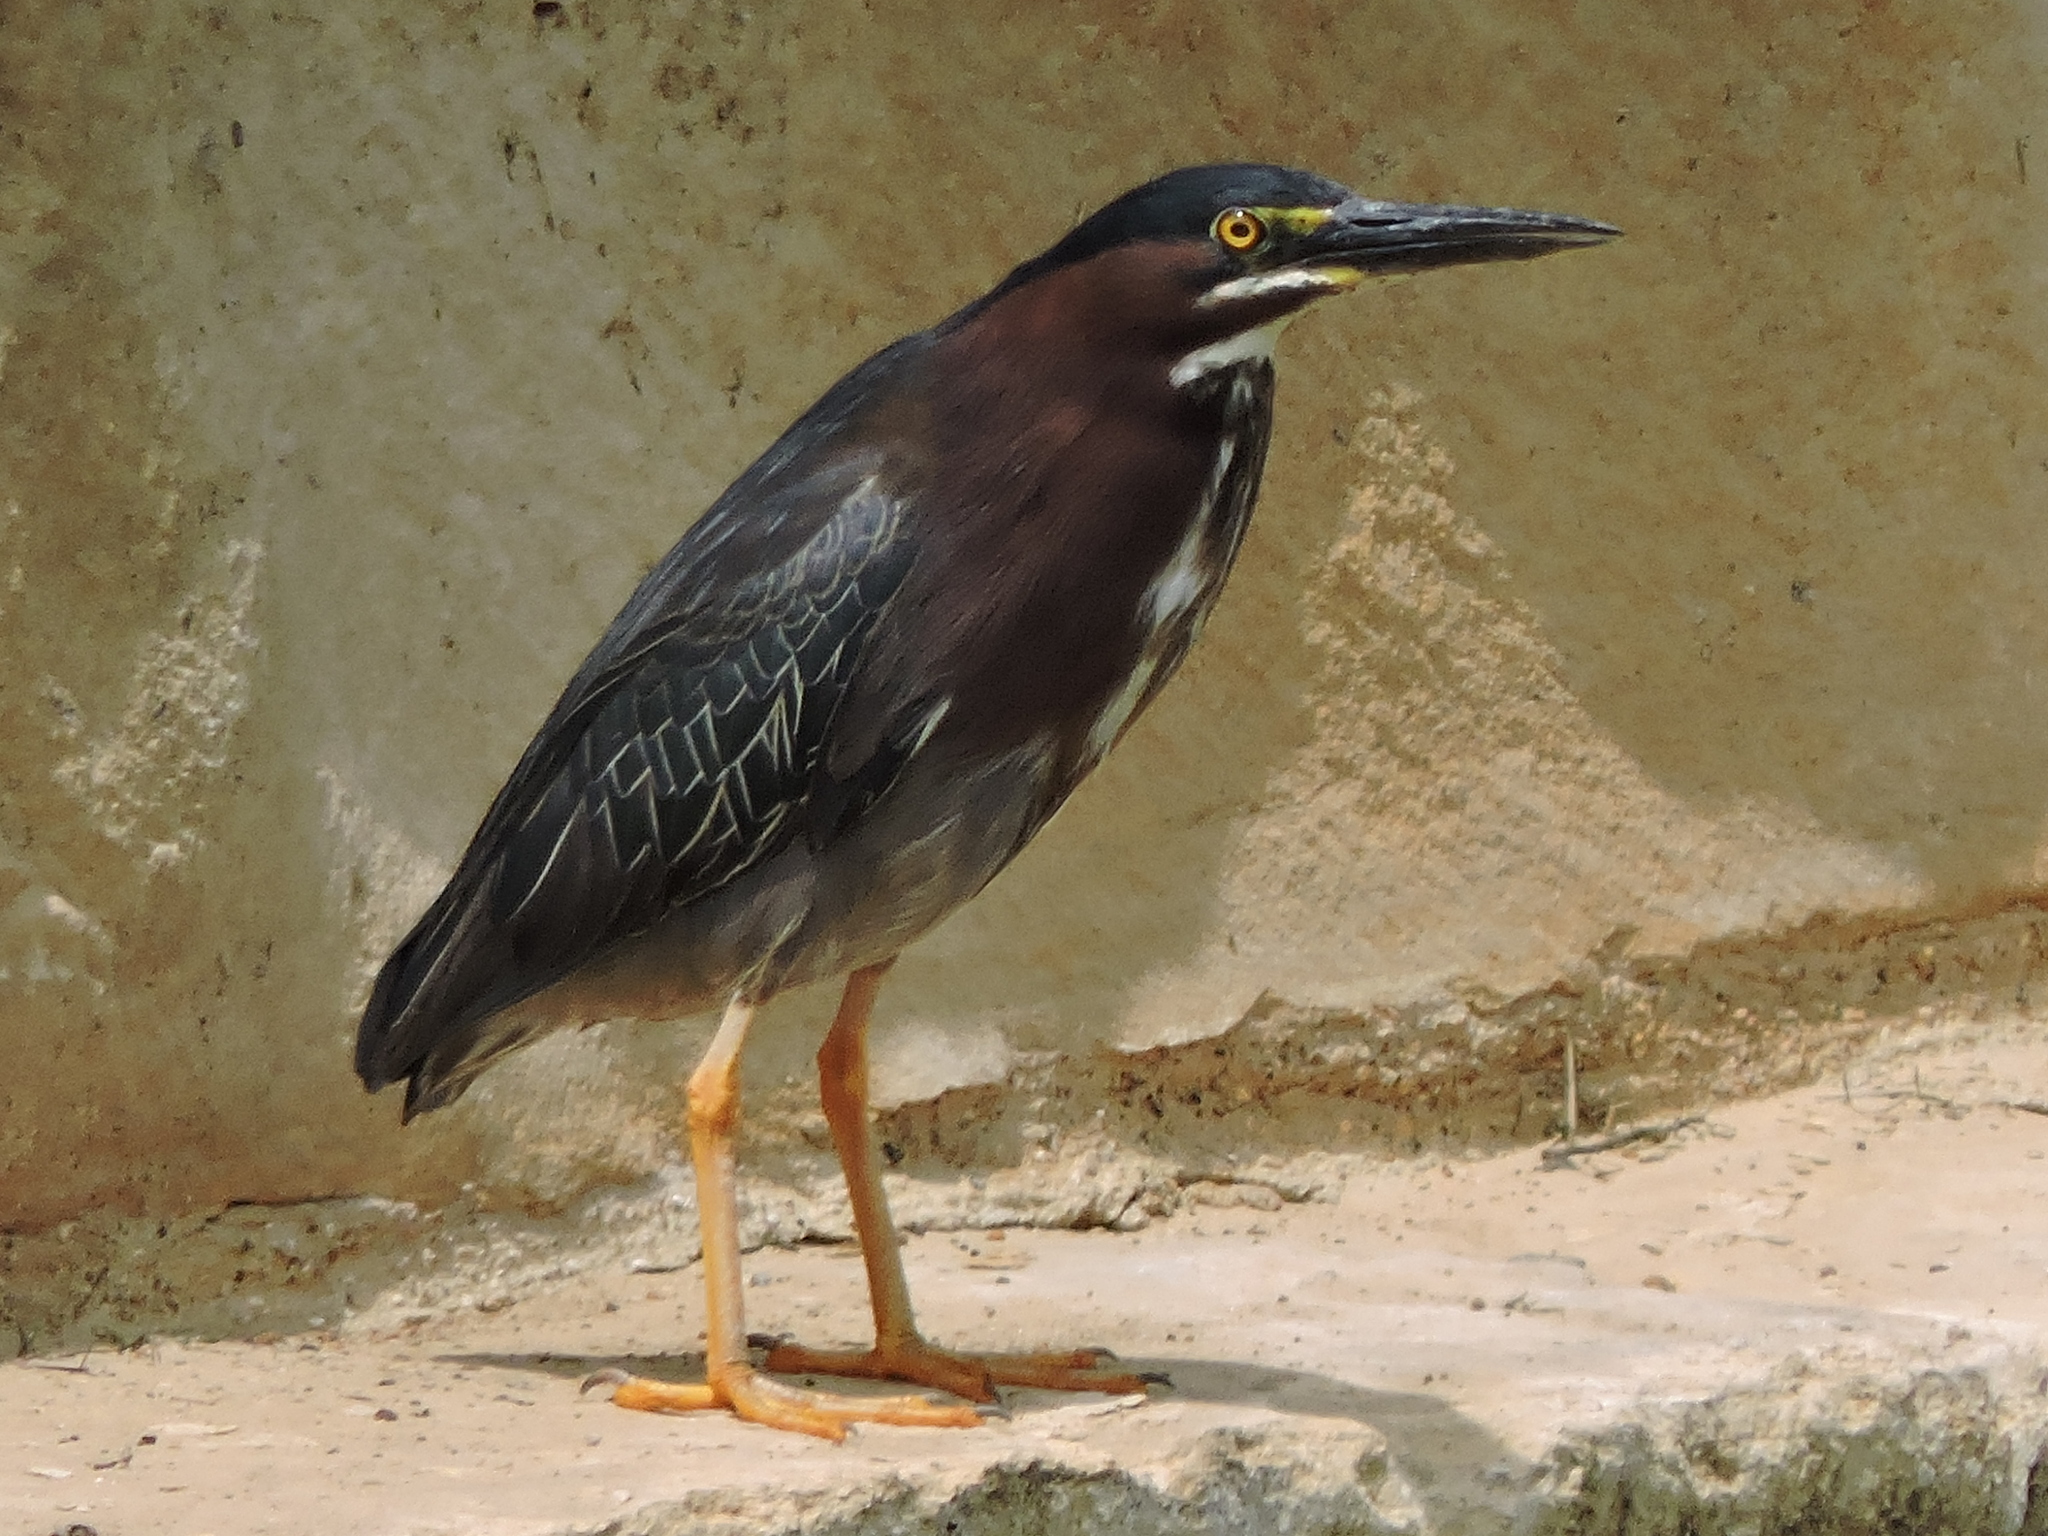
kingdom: Animalia
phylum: Chordata
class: Aves
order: Pelecaniformes
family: Ardeidae
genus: Butorides
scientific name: Butorides virescens
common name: Green heron
